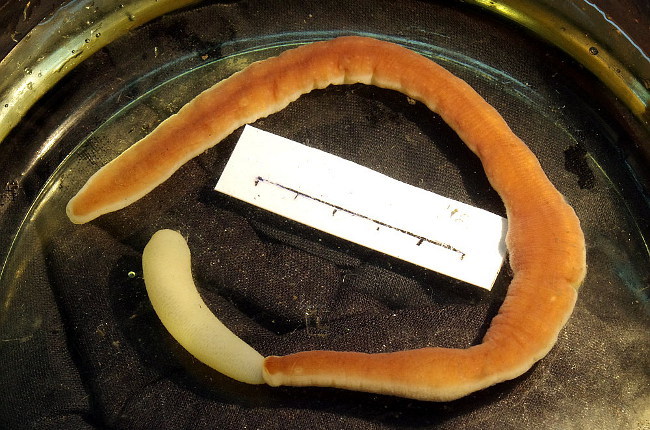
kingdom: Animalia
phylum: Nemertea
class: Pilidiophora
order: Heteronemertea
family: Lineidae
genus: Cerebratulus
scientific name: Cerebratulus marginatus
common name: Black ribbon worm
